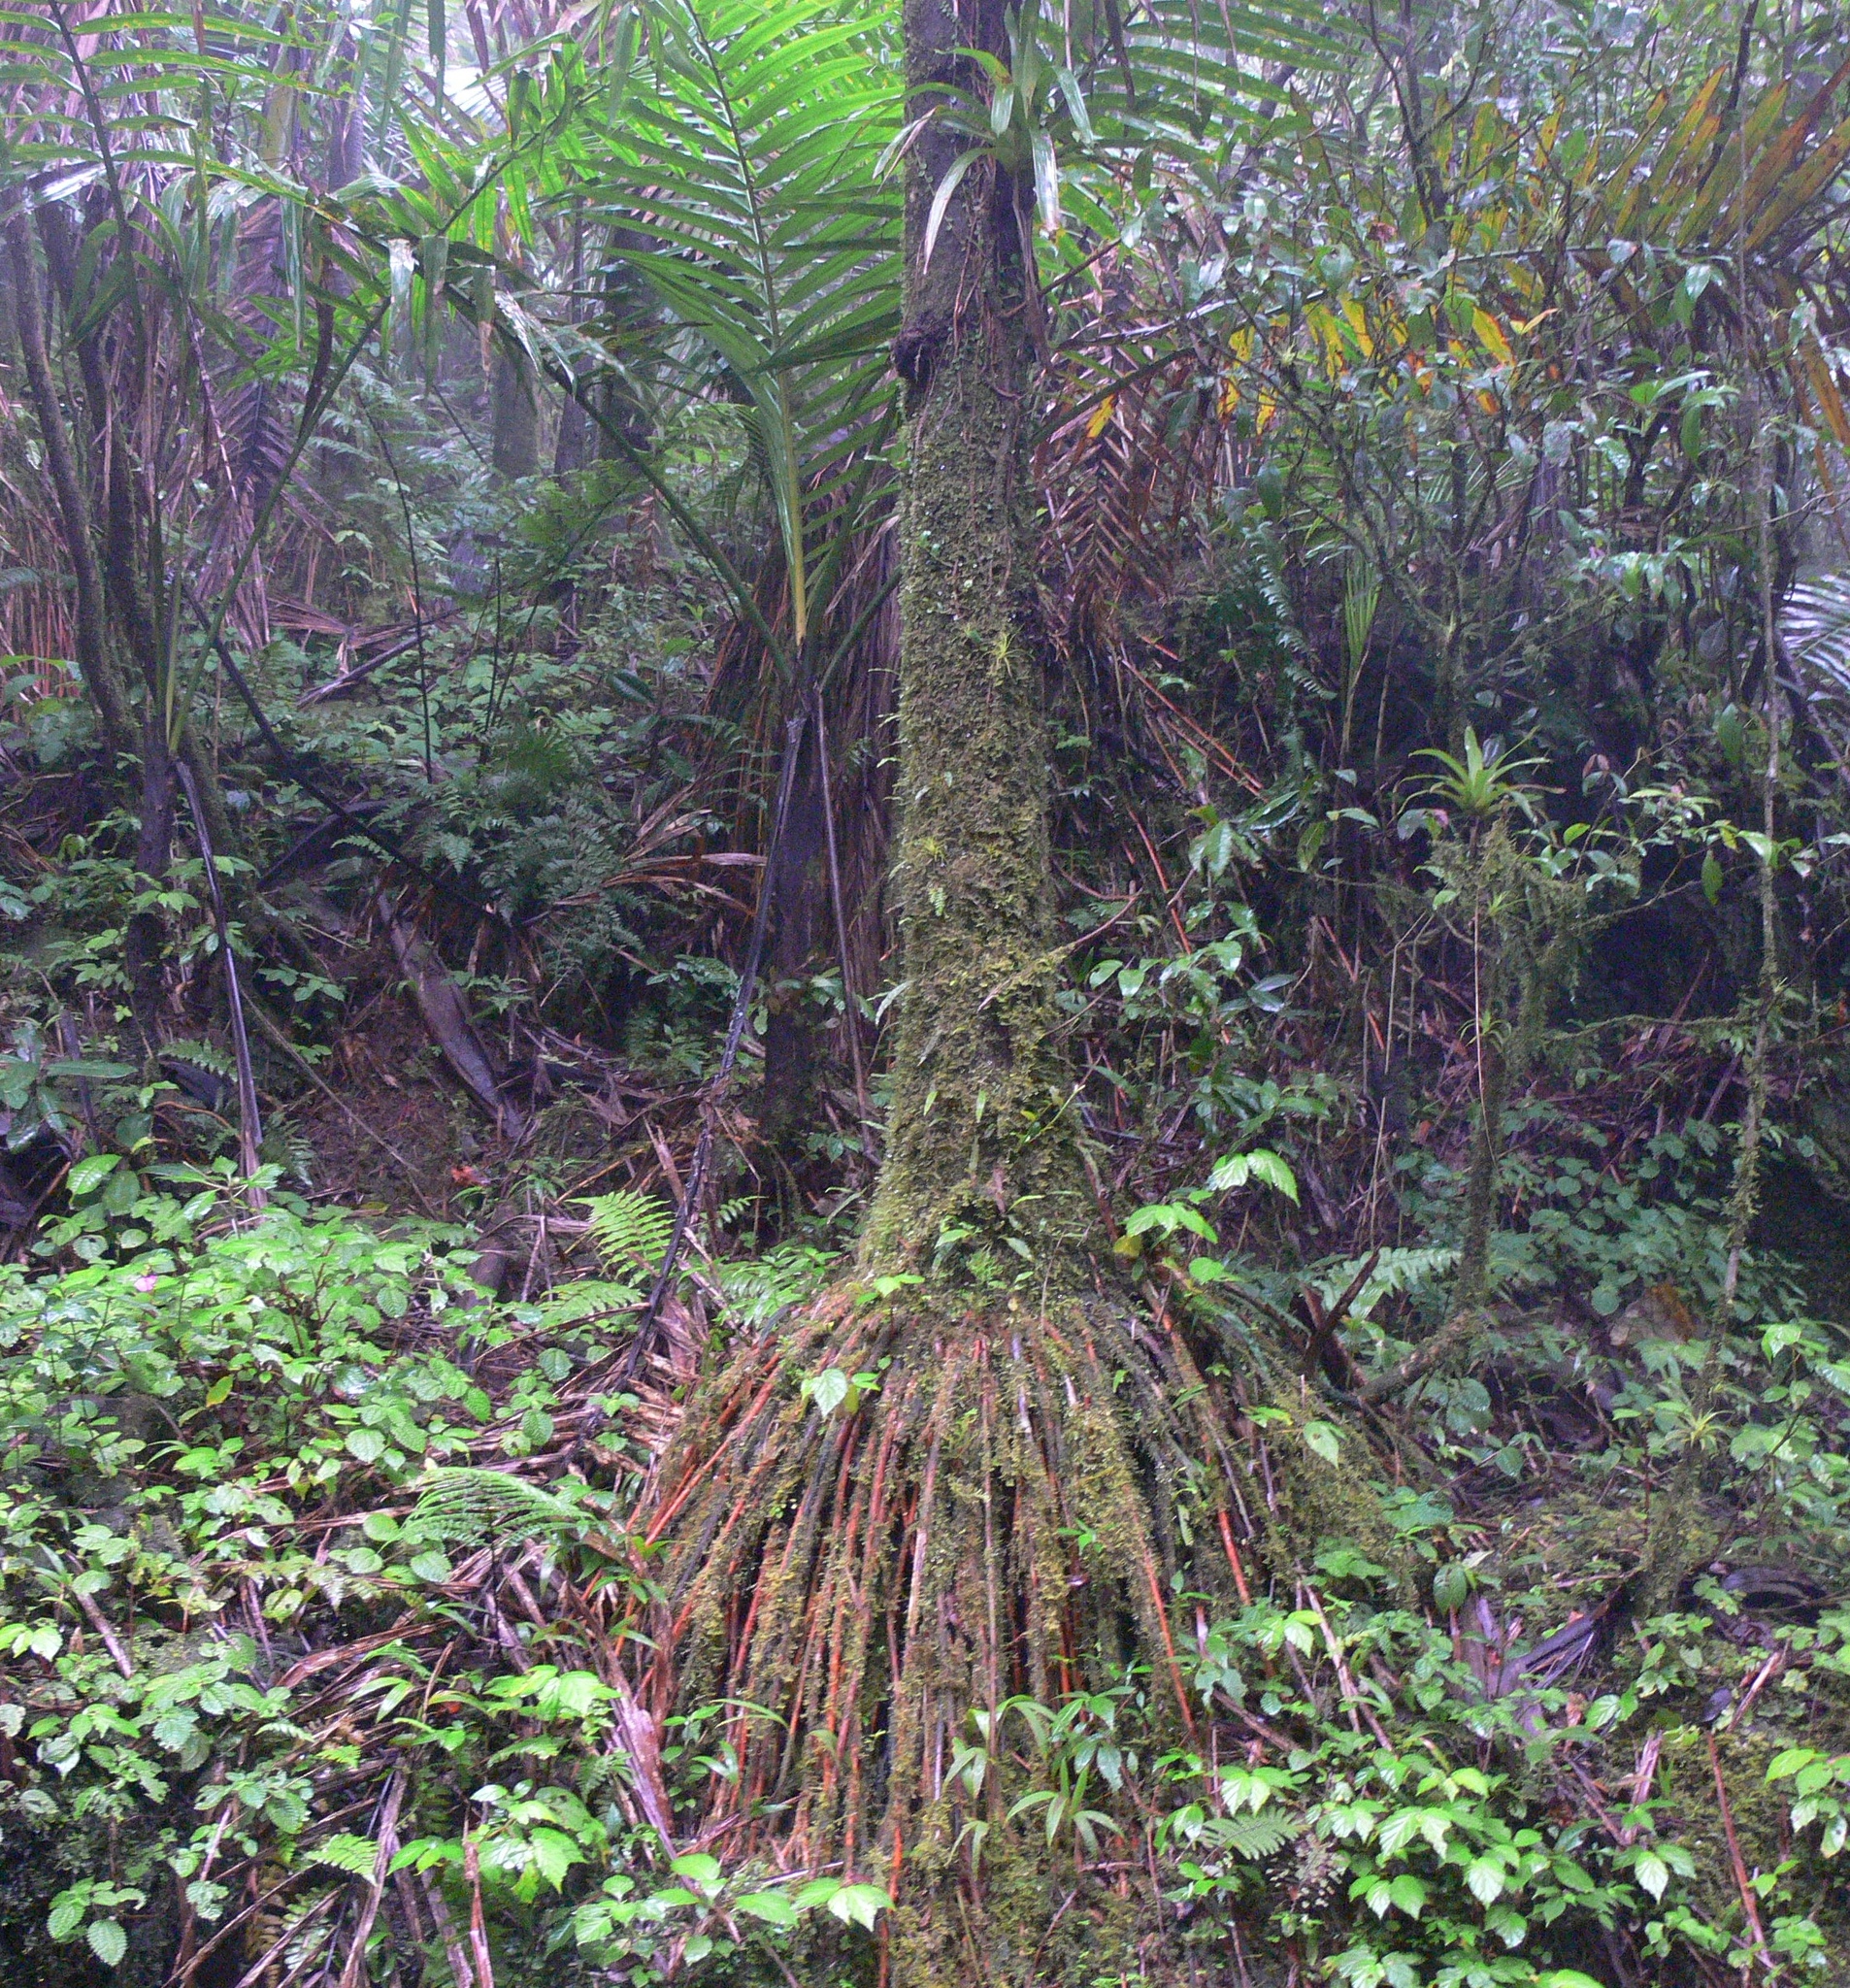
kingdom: Plantae
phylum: Tracheophyta
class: Liliopsida
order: Arecales
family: Arecaceae
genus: Prestoea
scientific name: Prestoea acuminata
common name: Sierran palm
